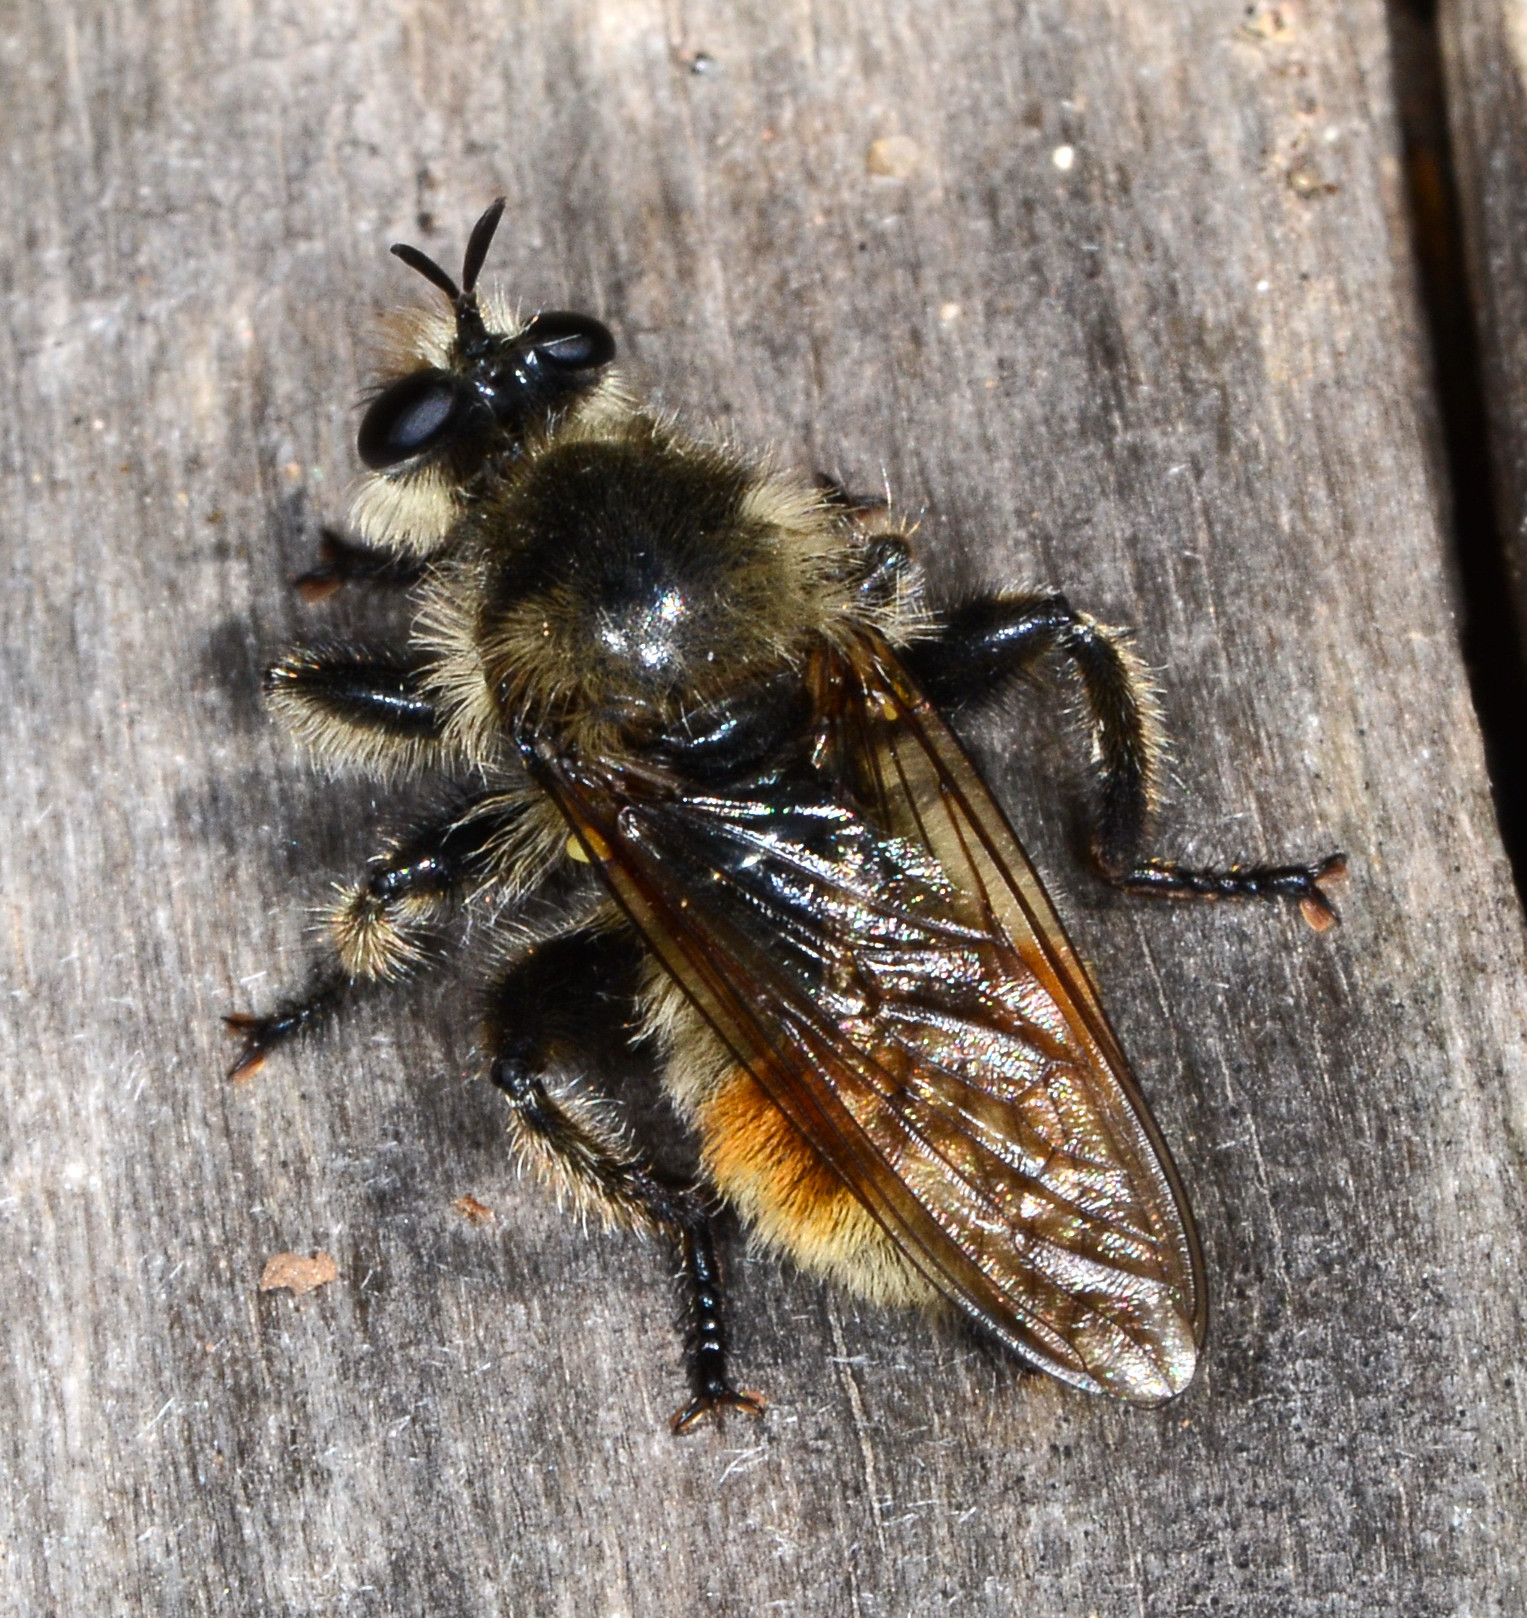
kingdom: Animalia
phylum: Arthropoda
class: Insecta
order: Diptera
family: Asilidae
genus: Laphria
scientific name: Laphria fernaldi
